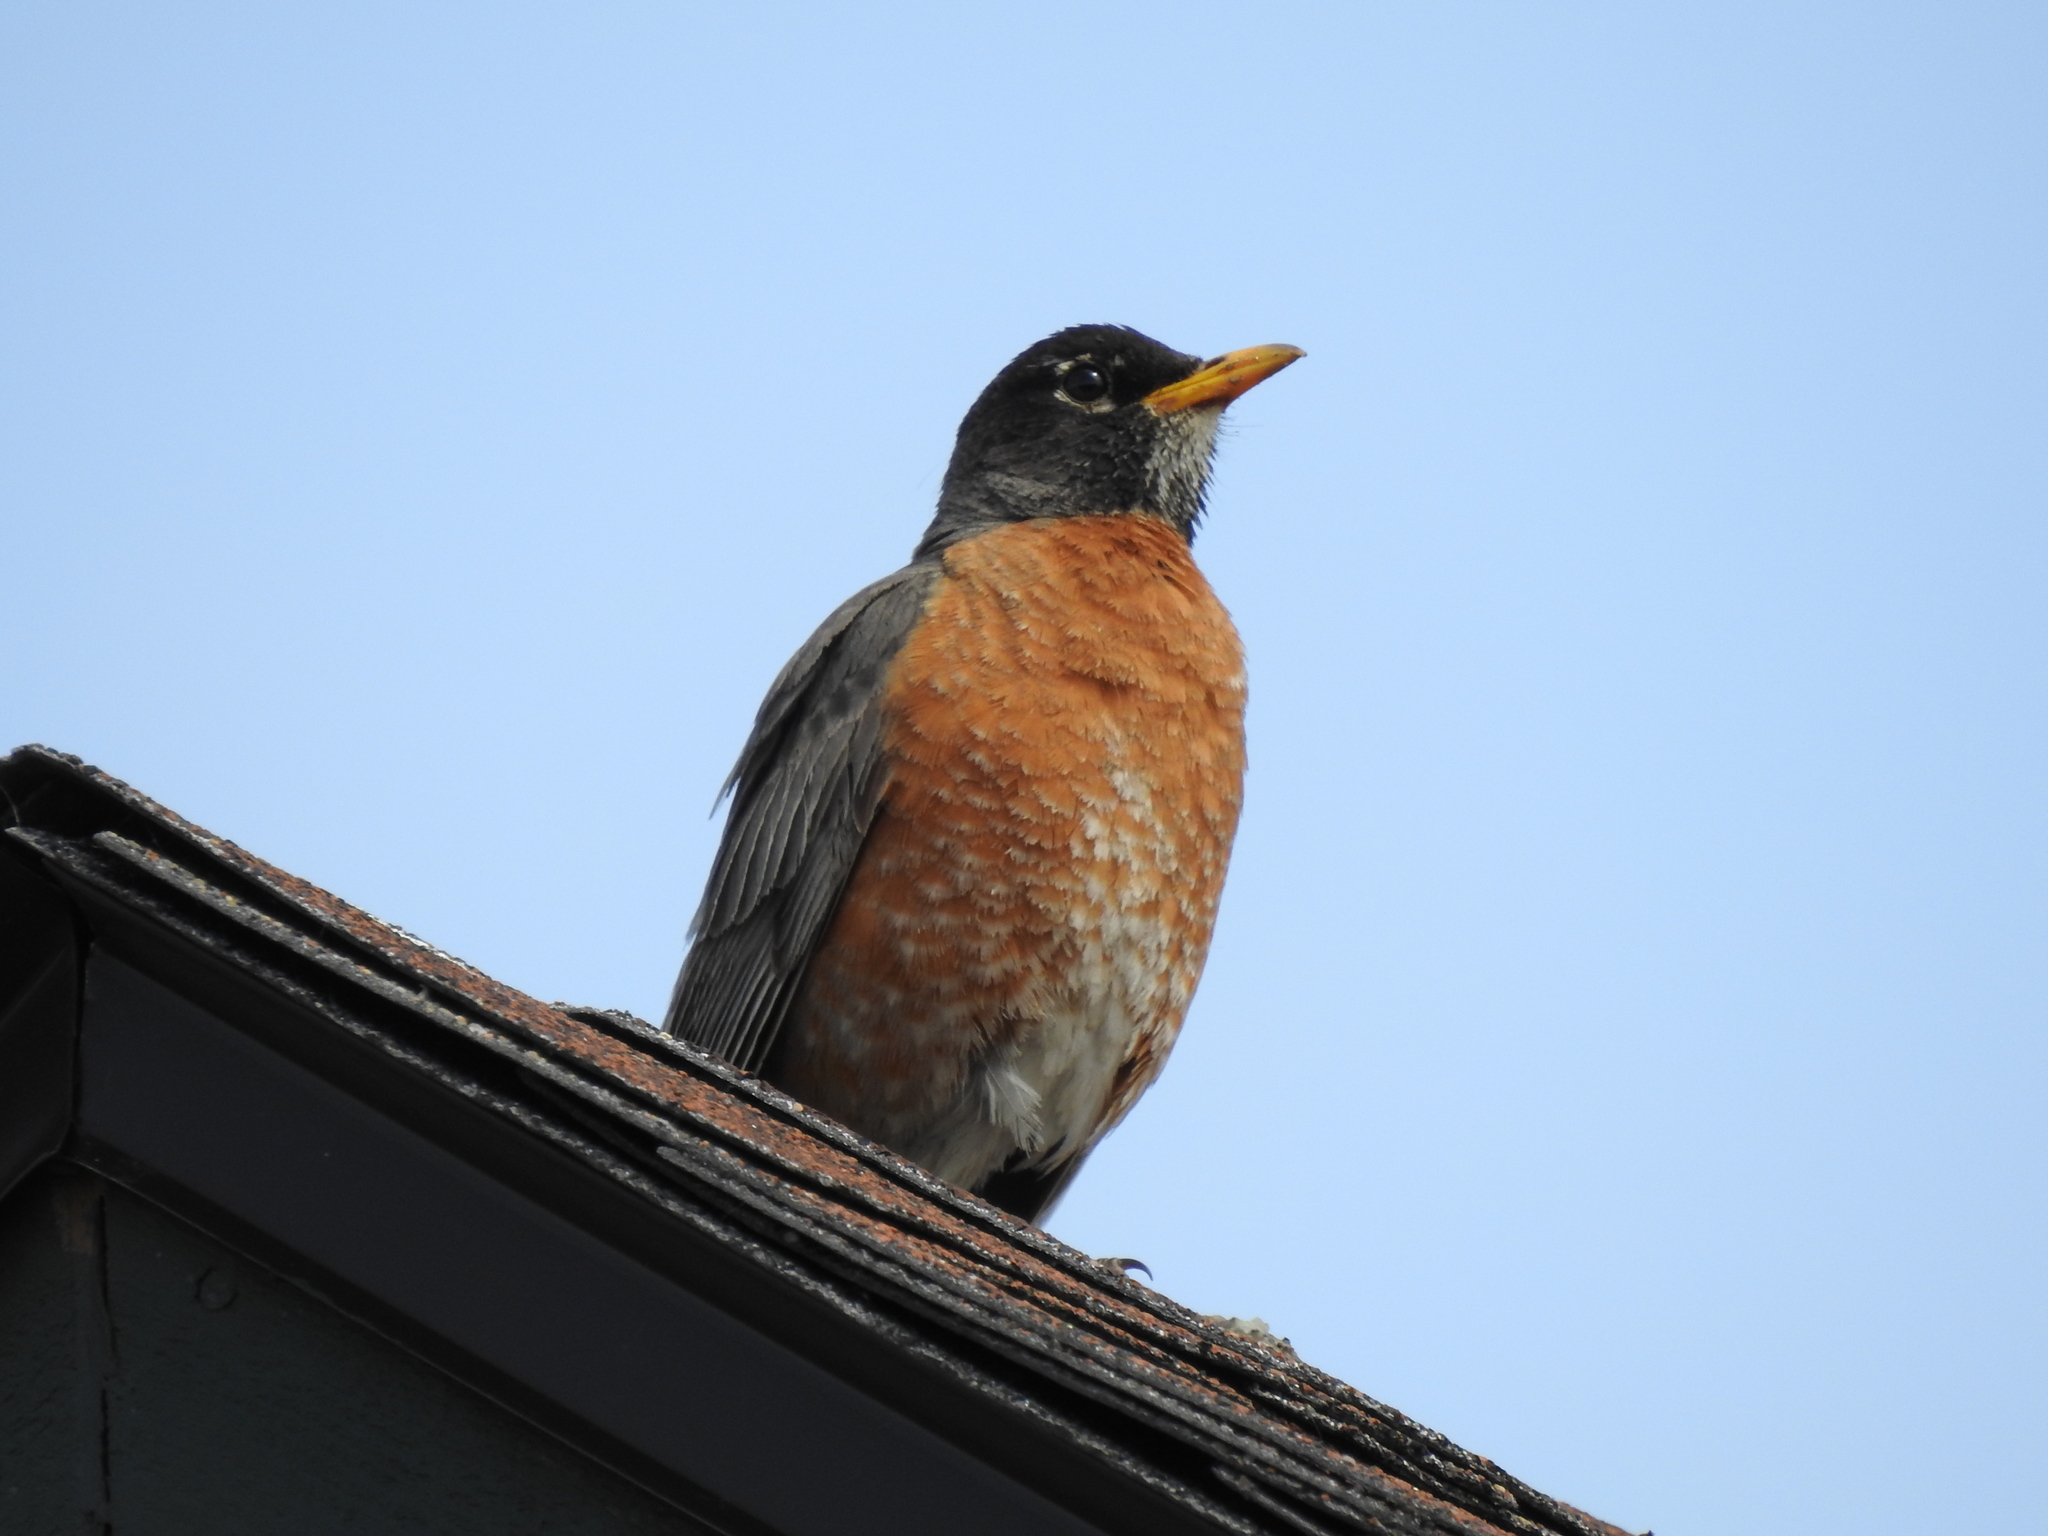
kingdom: Animalia
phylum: Chordata
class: Aves
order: Passeriformes
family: Turdidae
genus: Turdus
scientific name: Turdus migratorius
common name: American robin
